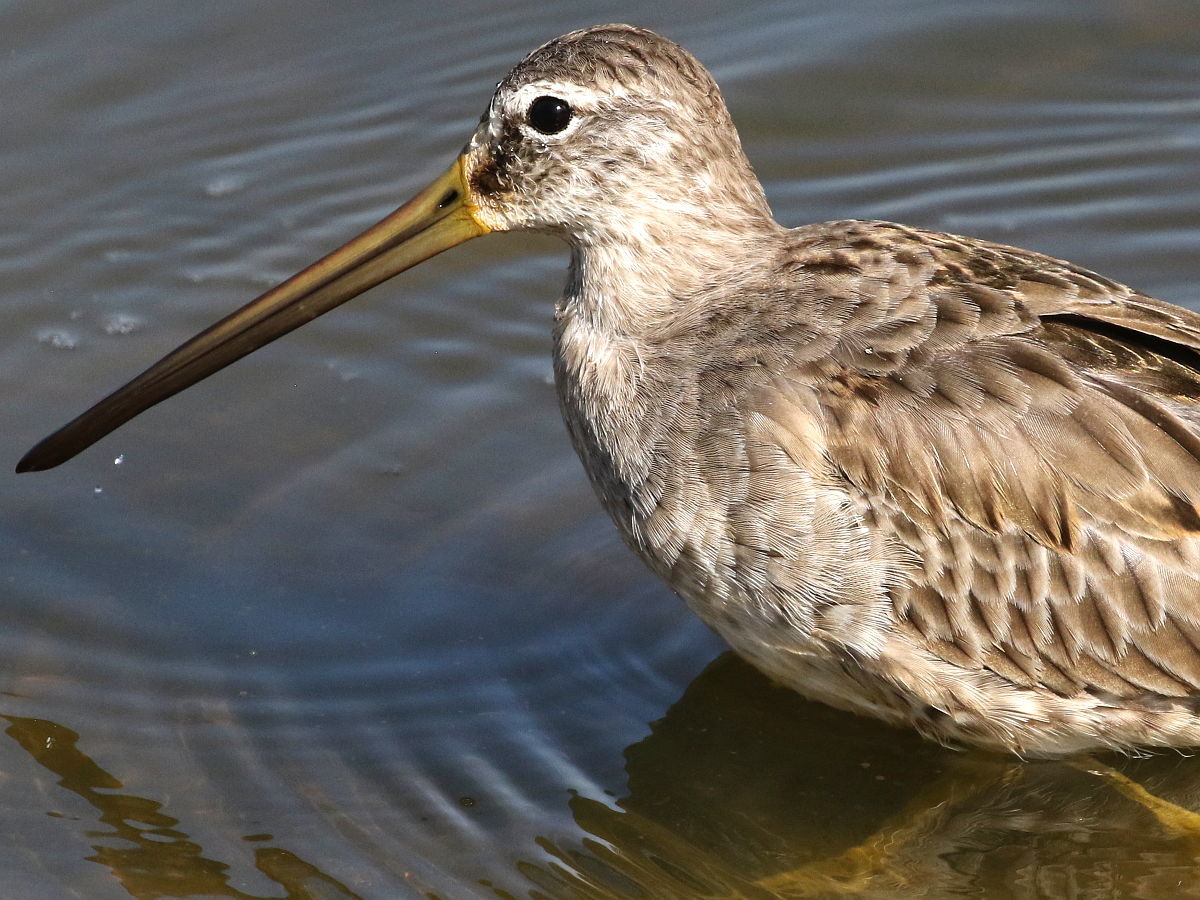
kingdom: Animalia
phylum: Chordata
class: Aves
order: Charadriiformes
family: Scolopacidae
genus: Limnodromus
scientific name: Limnodromus scolopaceus
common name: Long-billed dowitcher
